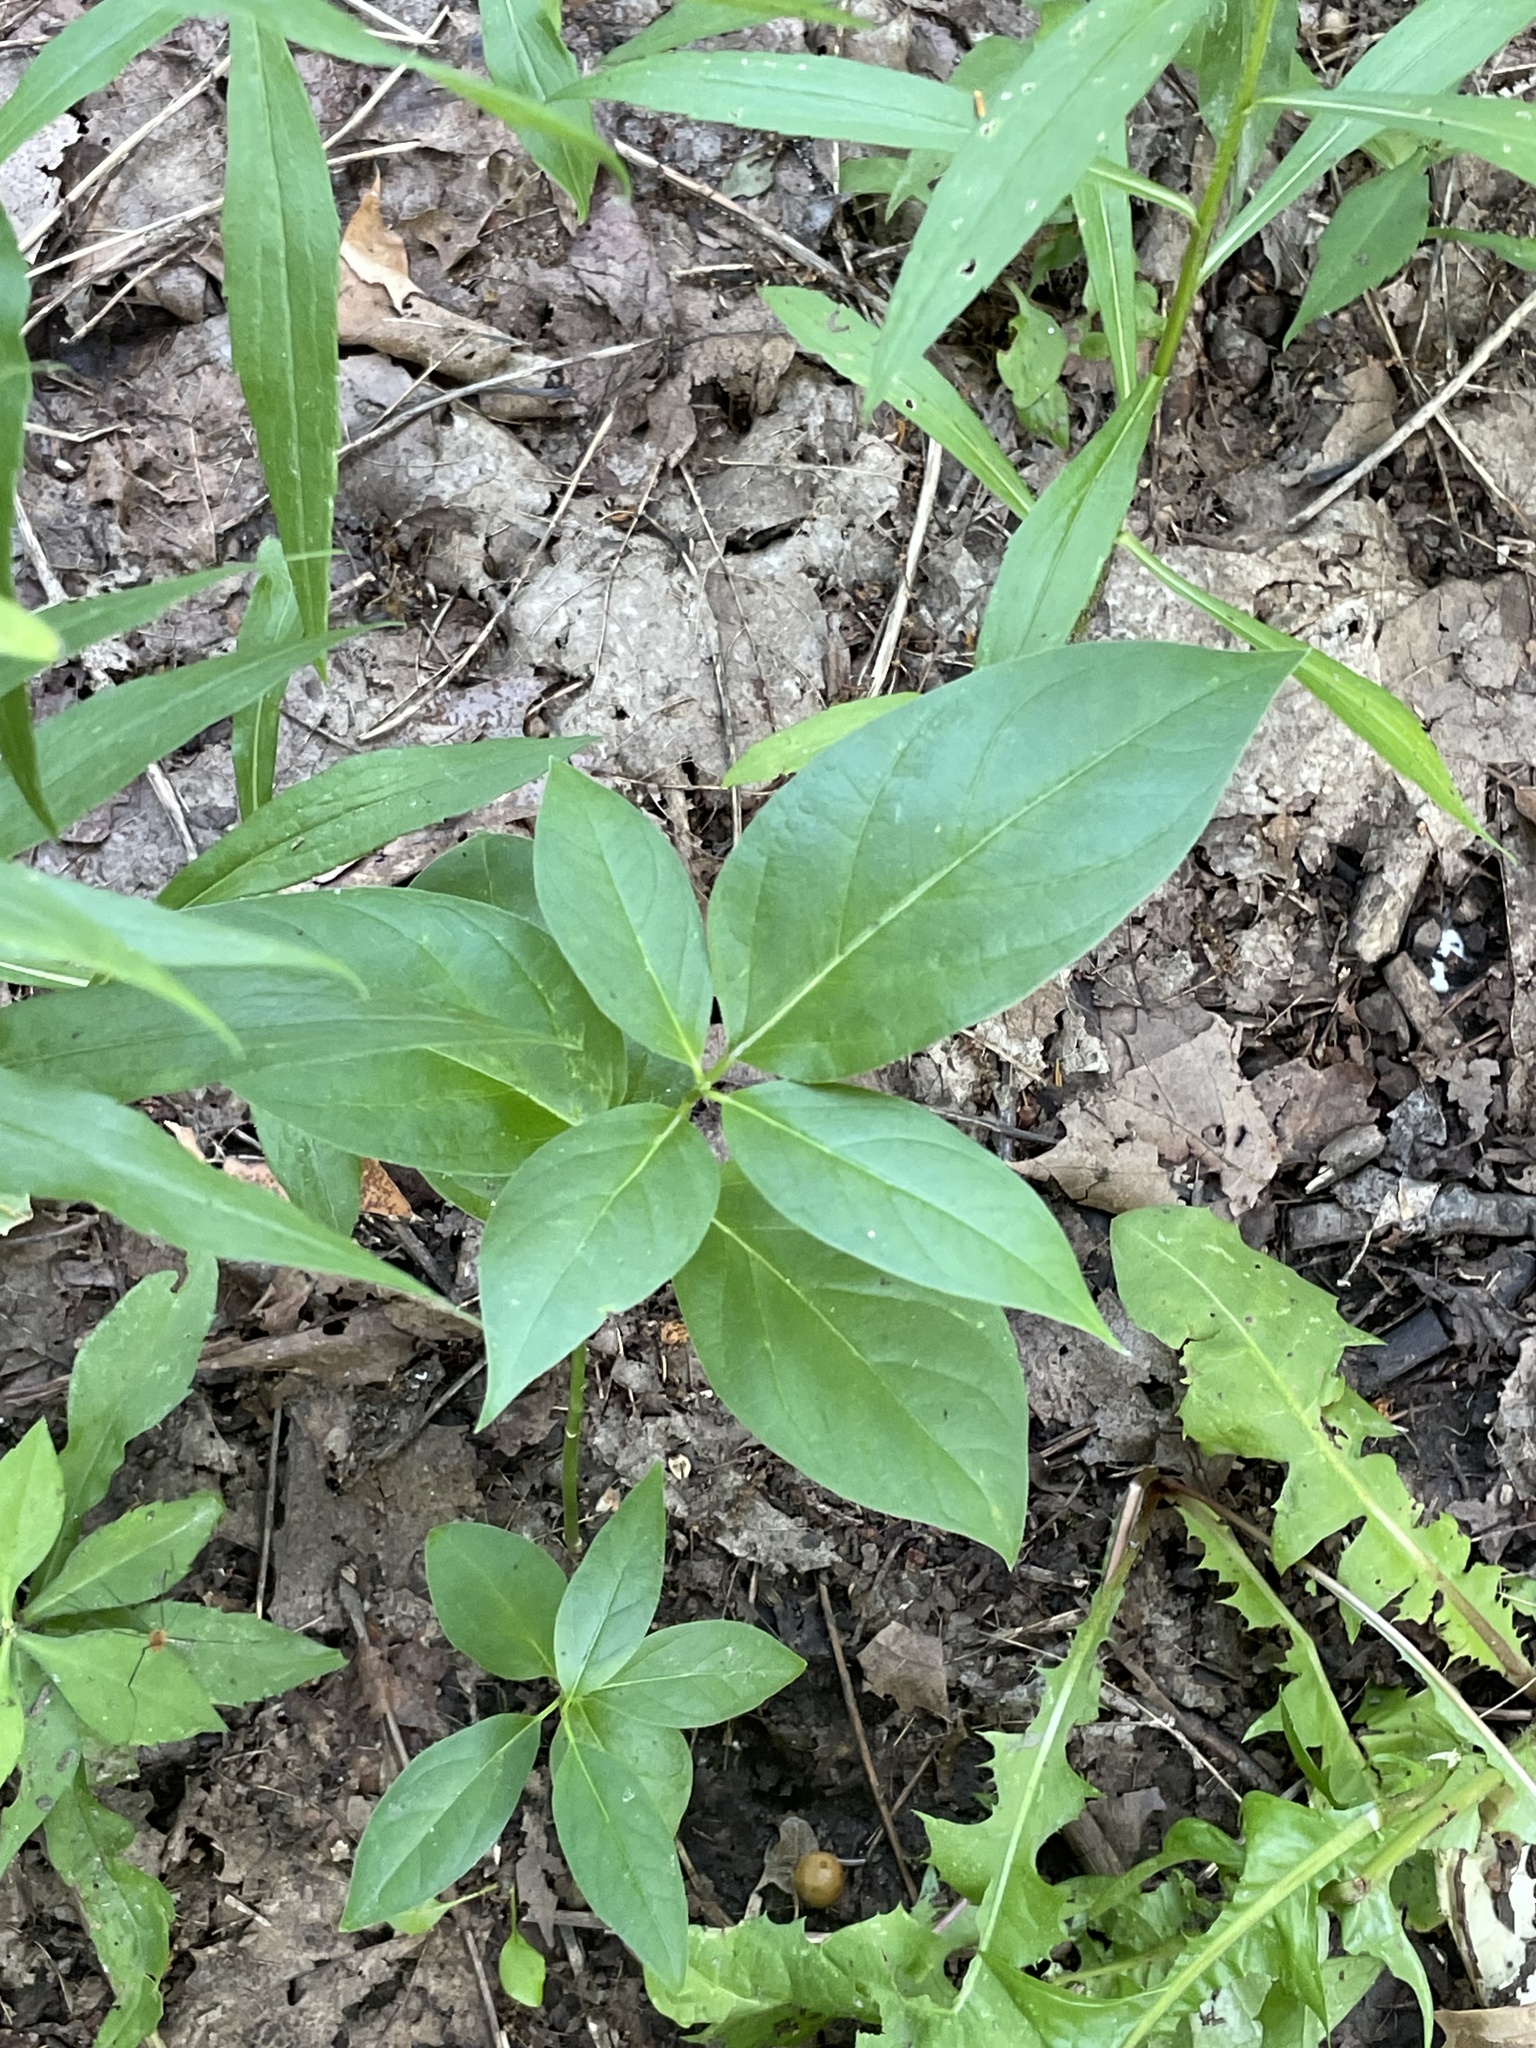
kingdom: Plantae
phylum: Tracheophyta
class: Magnoliopsida
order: Gentianales
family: Apocynaceae
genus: Vincetoxicum
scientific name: Vincetoxicum rossicum
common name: Dog-strangling vine
